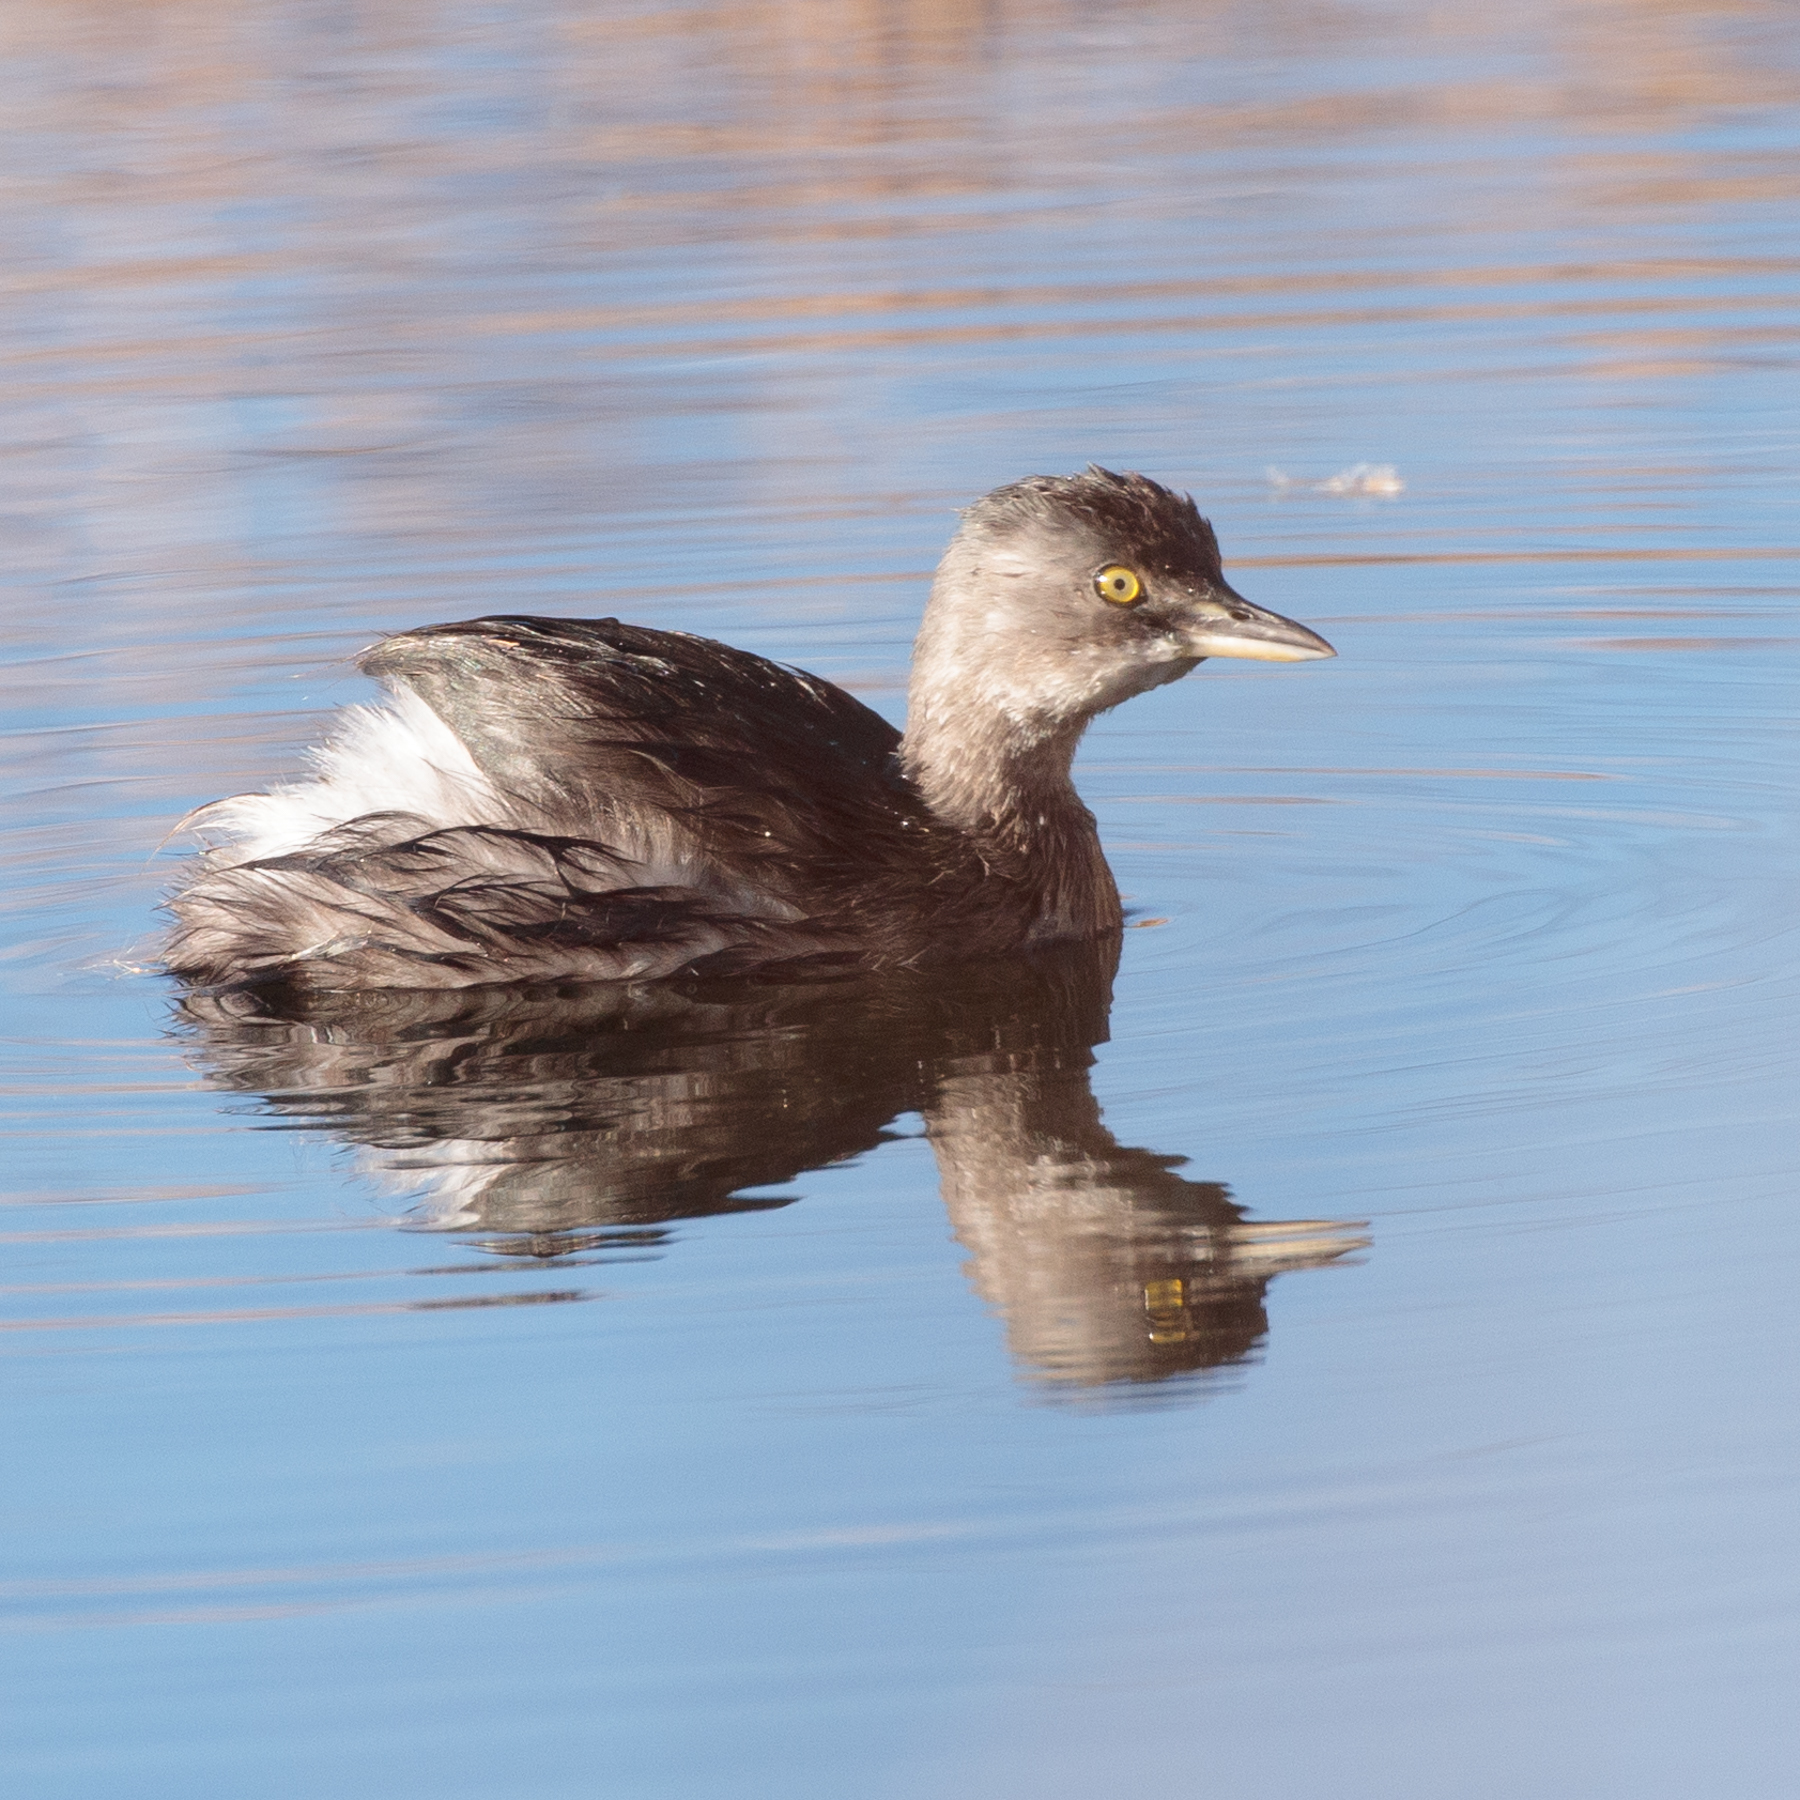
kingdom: Animalia
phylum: Chordata
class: Aves
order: Podicipediformes
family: Podicipedidae
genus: Tachybaptus
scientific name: Tachybaptus dominicus
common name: Least grebe
